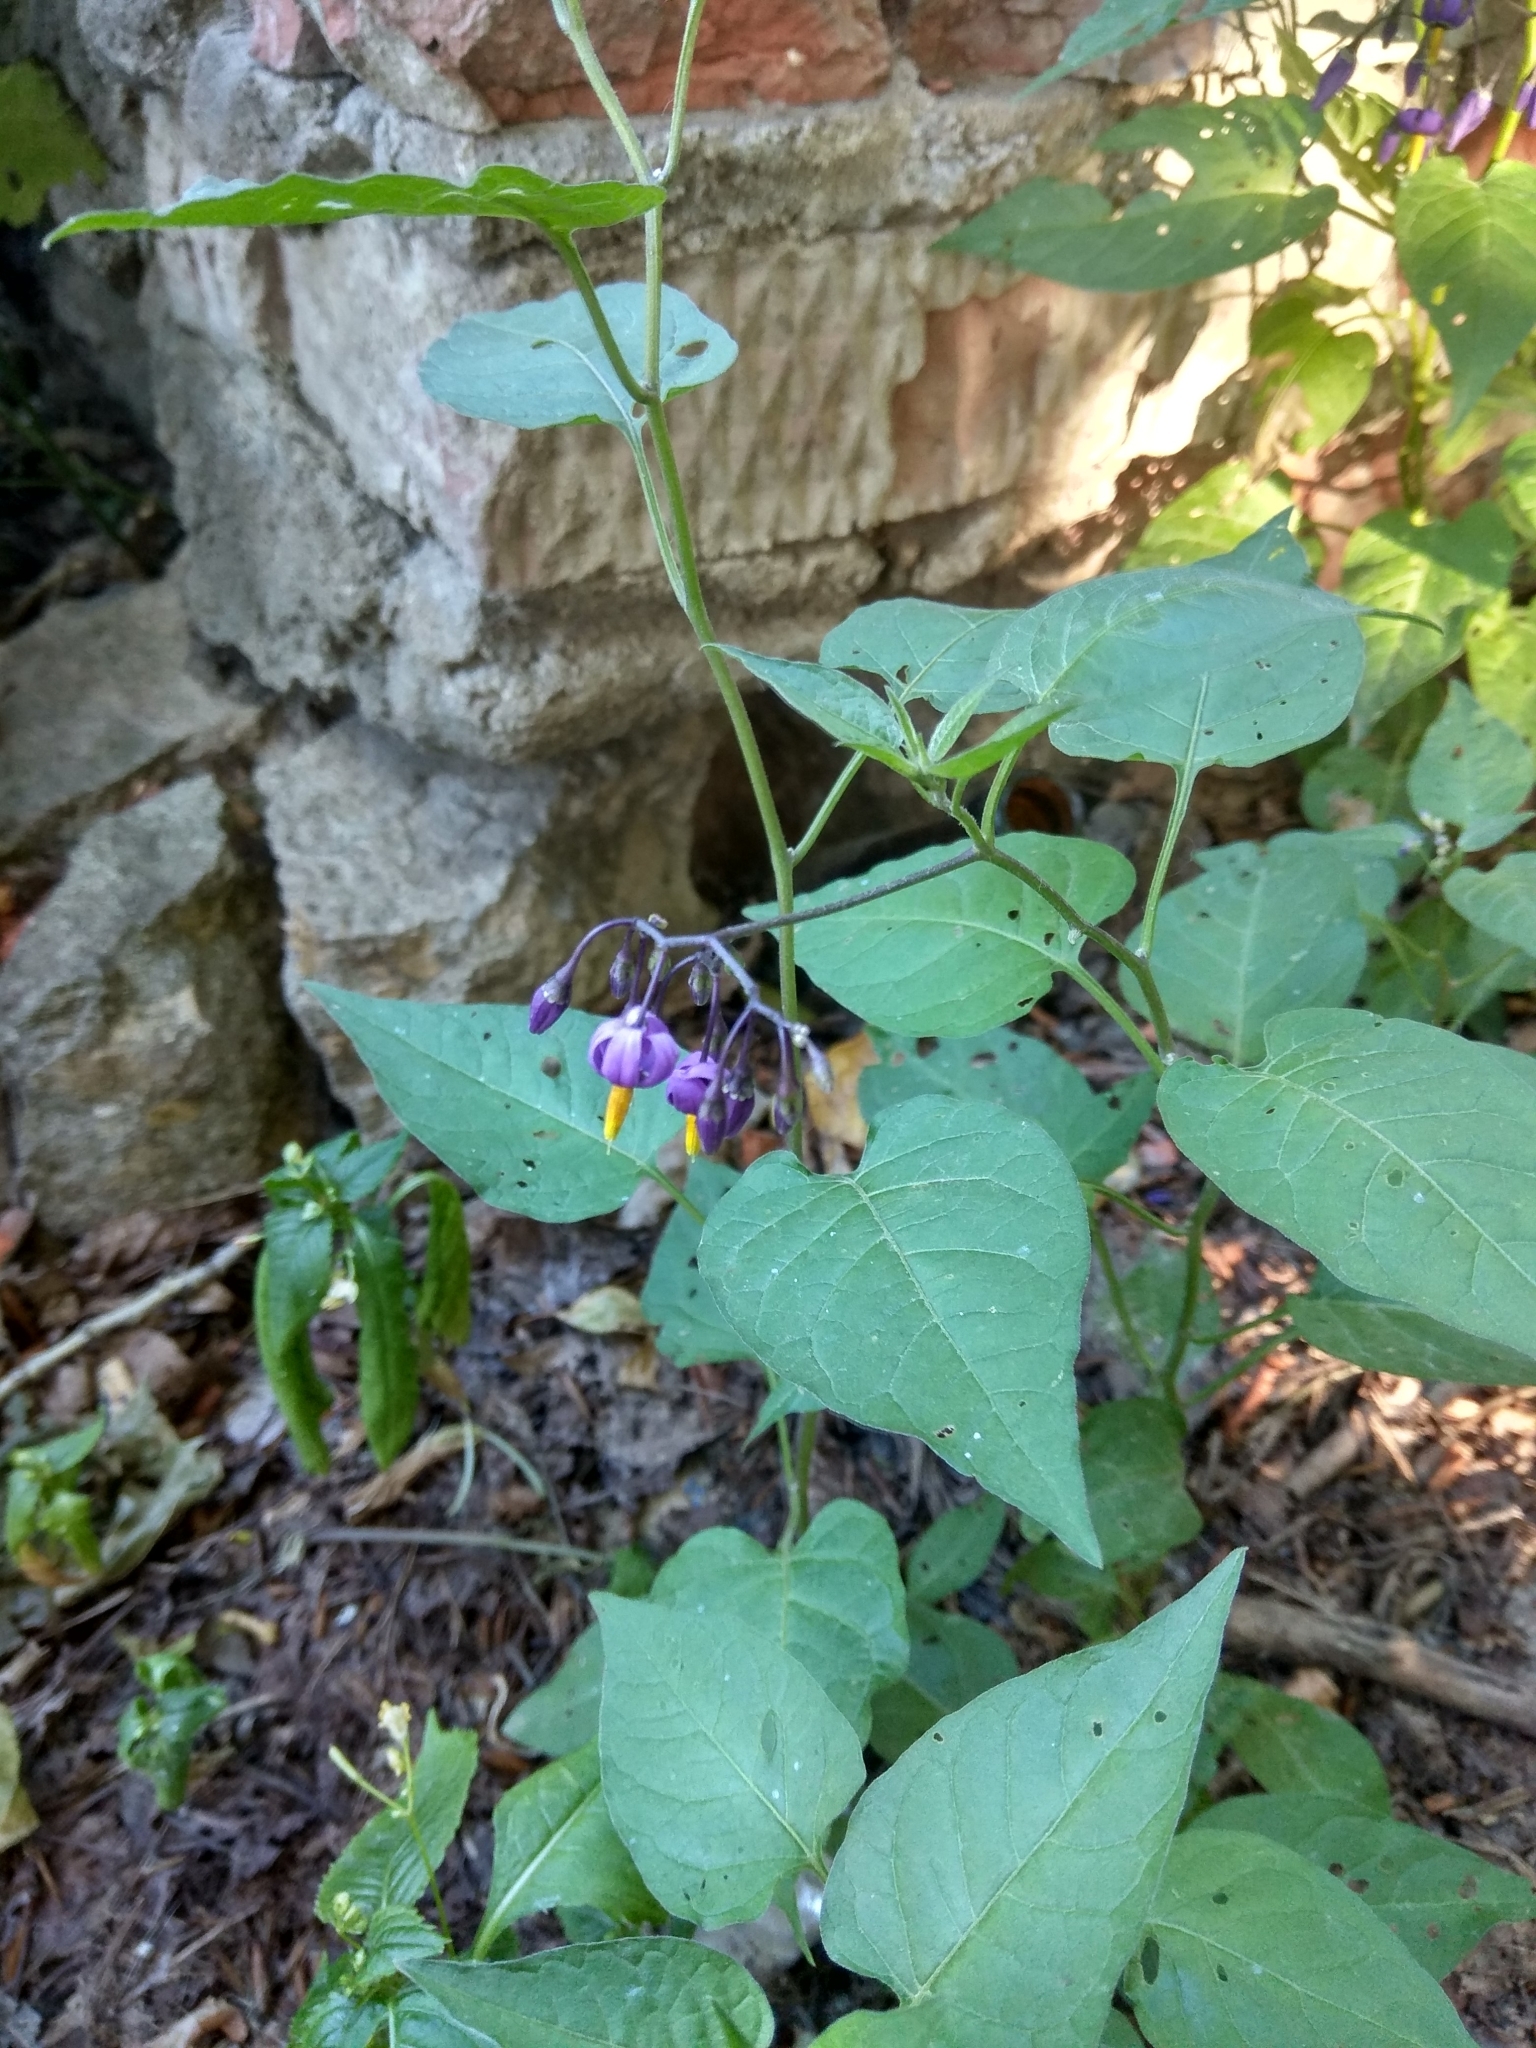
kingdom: Plantae
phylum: Tracheophyta
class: Magnoliopsida
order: Solanales
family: Solanaceae
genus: Solanum
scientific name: Solanum dulcamara
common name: Climbing nightshade
